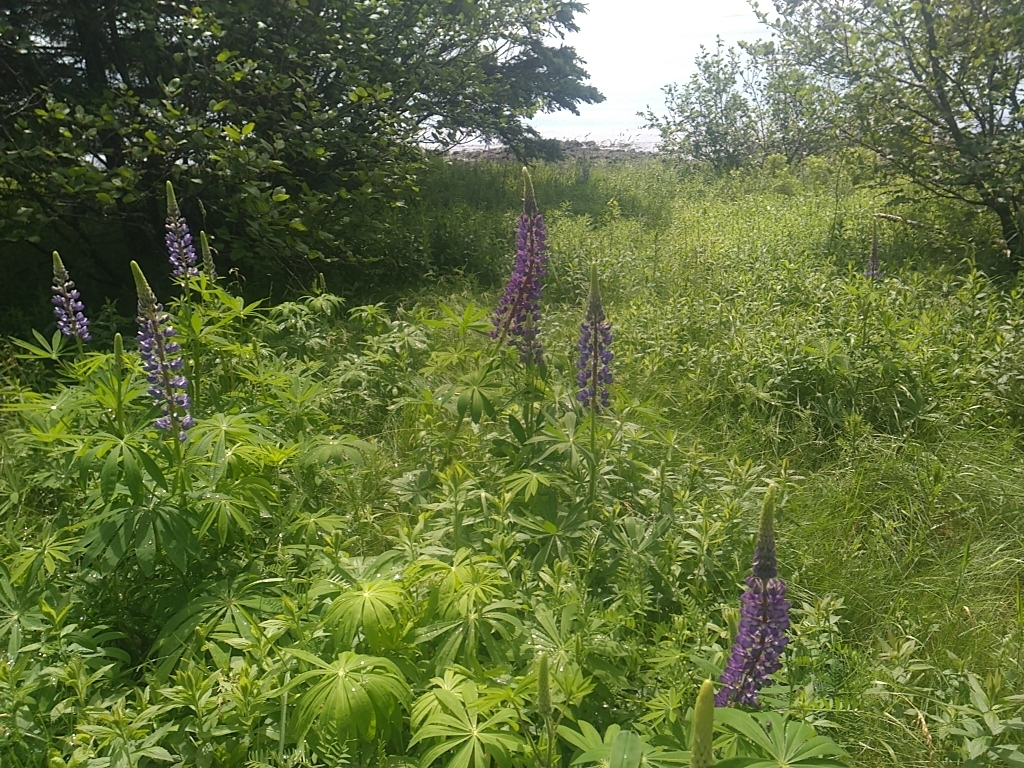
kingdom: Plantae
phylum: Tracheophyta
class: Magnoliopsida
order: Fabales
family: Fabaceae
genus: Lupinus
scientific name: Lupinus polyphyllus
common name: Garden lupin
